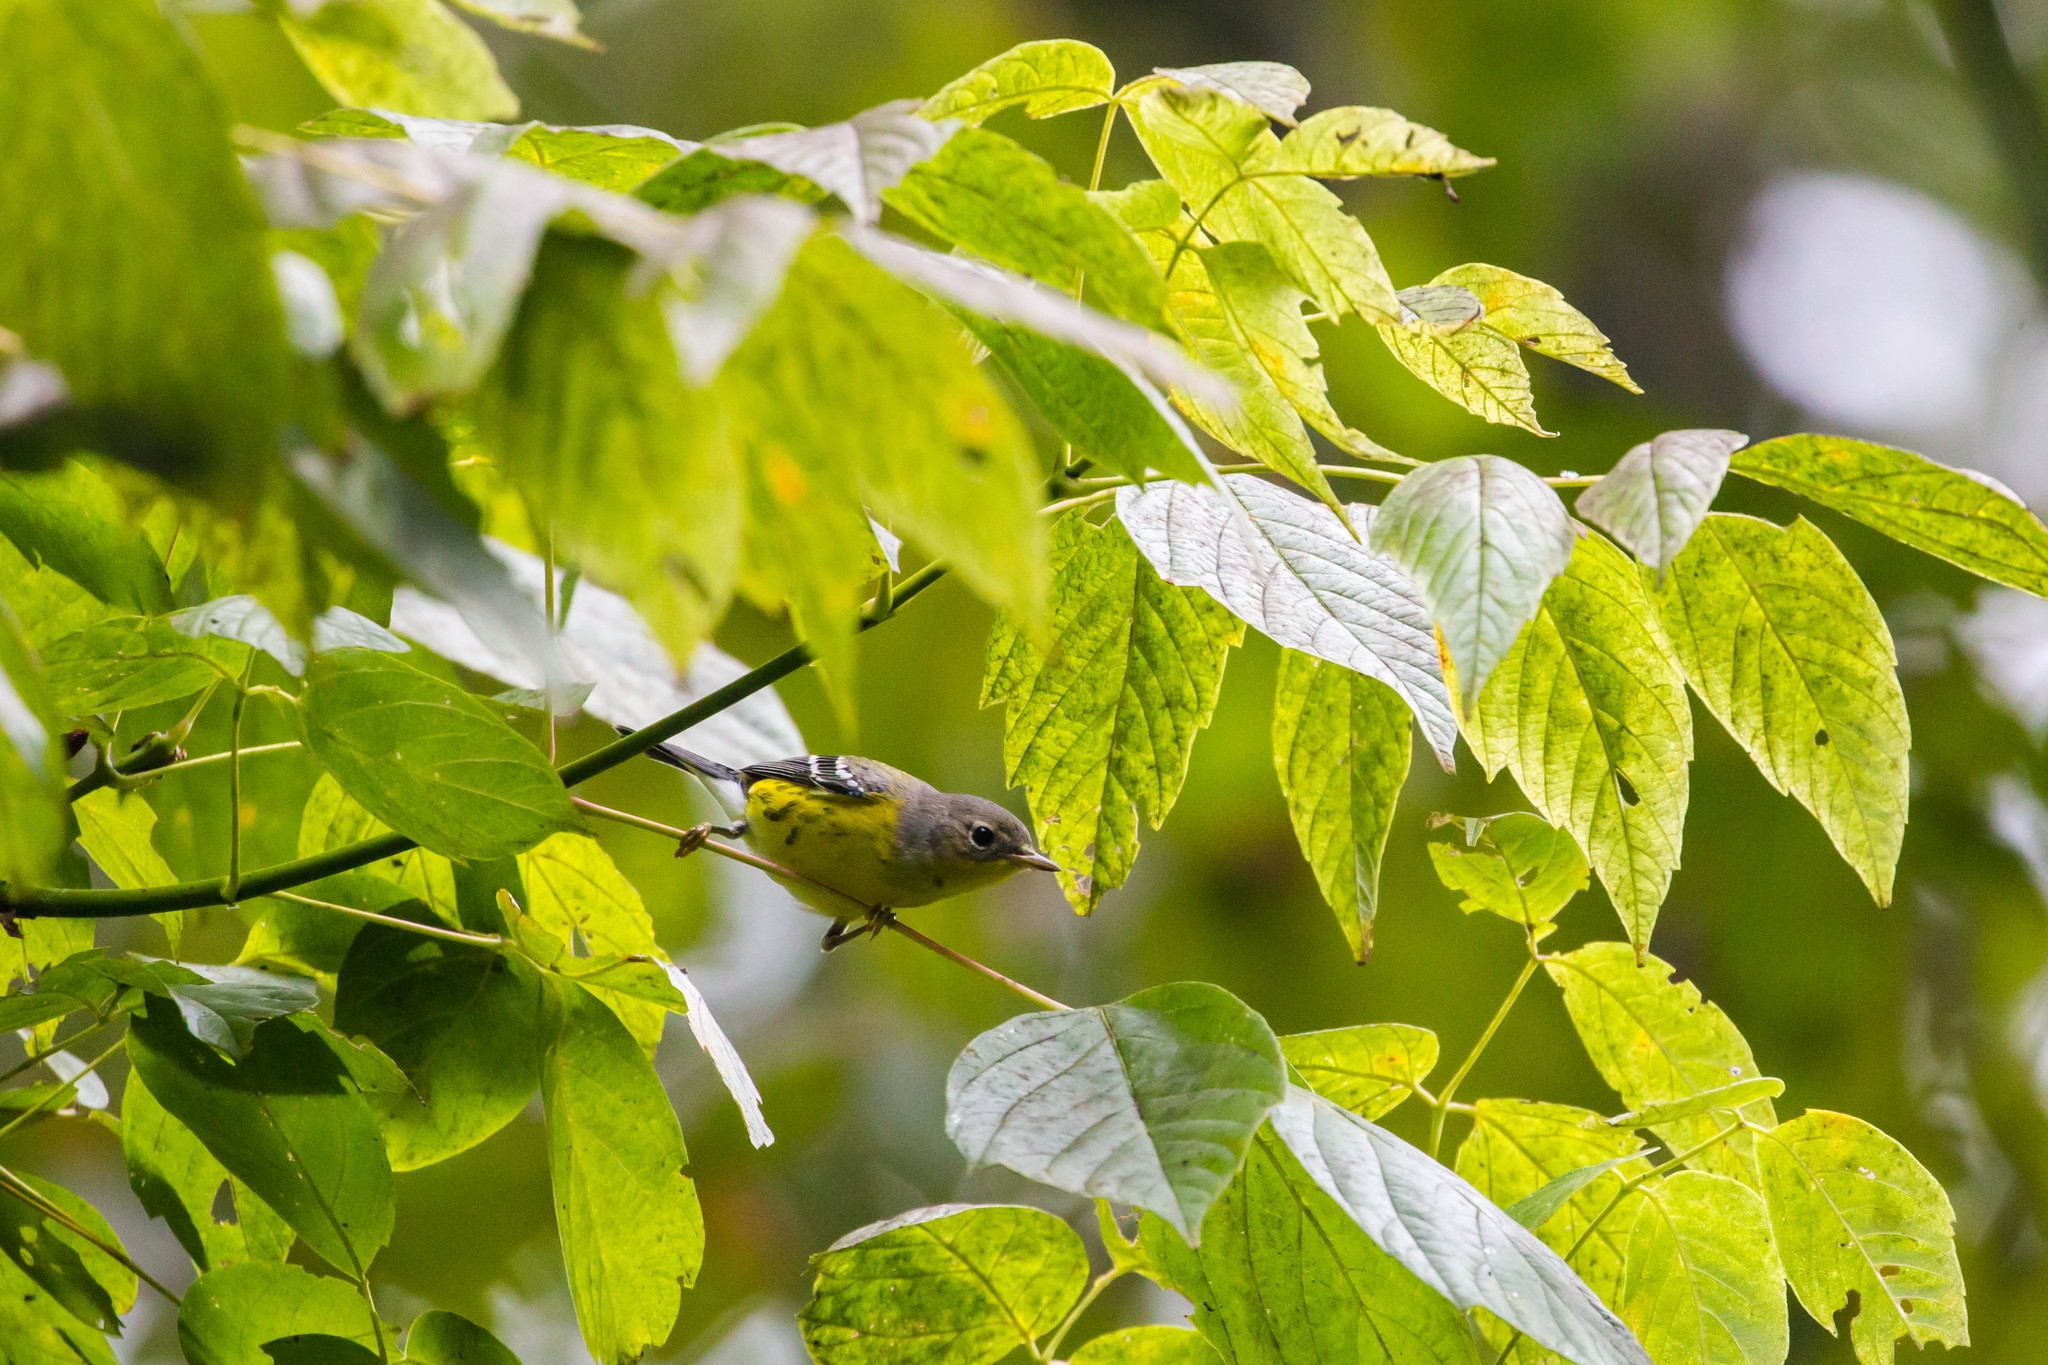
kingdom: Animalia
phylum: Chordata
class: Aves
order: Passeriformes
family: Parulidae
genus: Setophaga
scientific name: Setophaga magnolia
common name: Magnolia warbler
